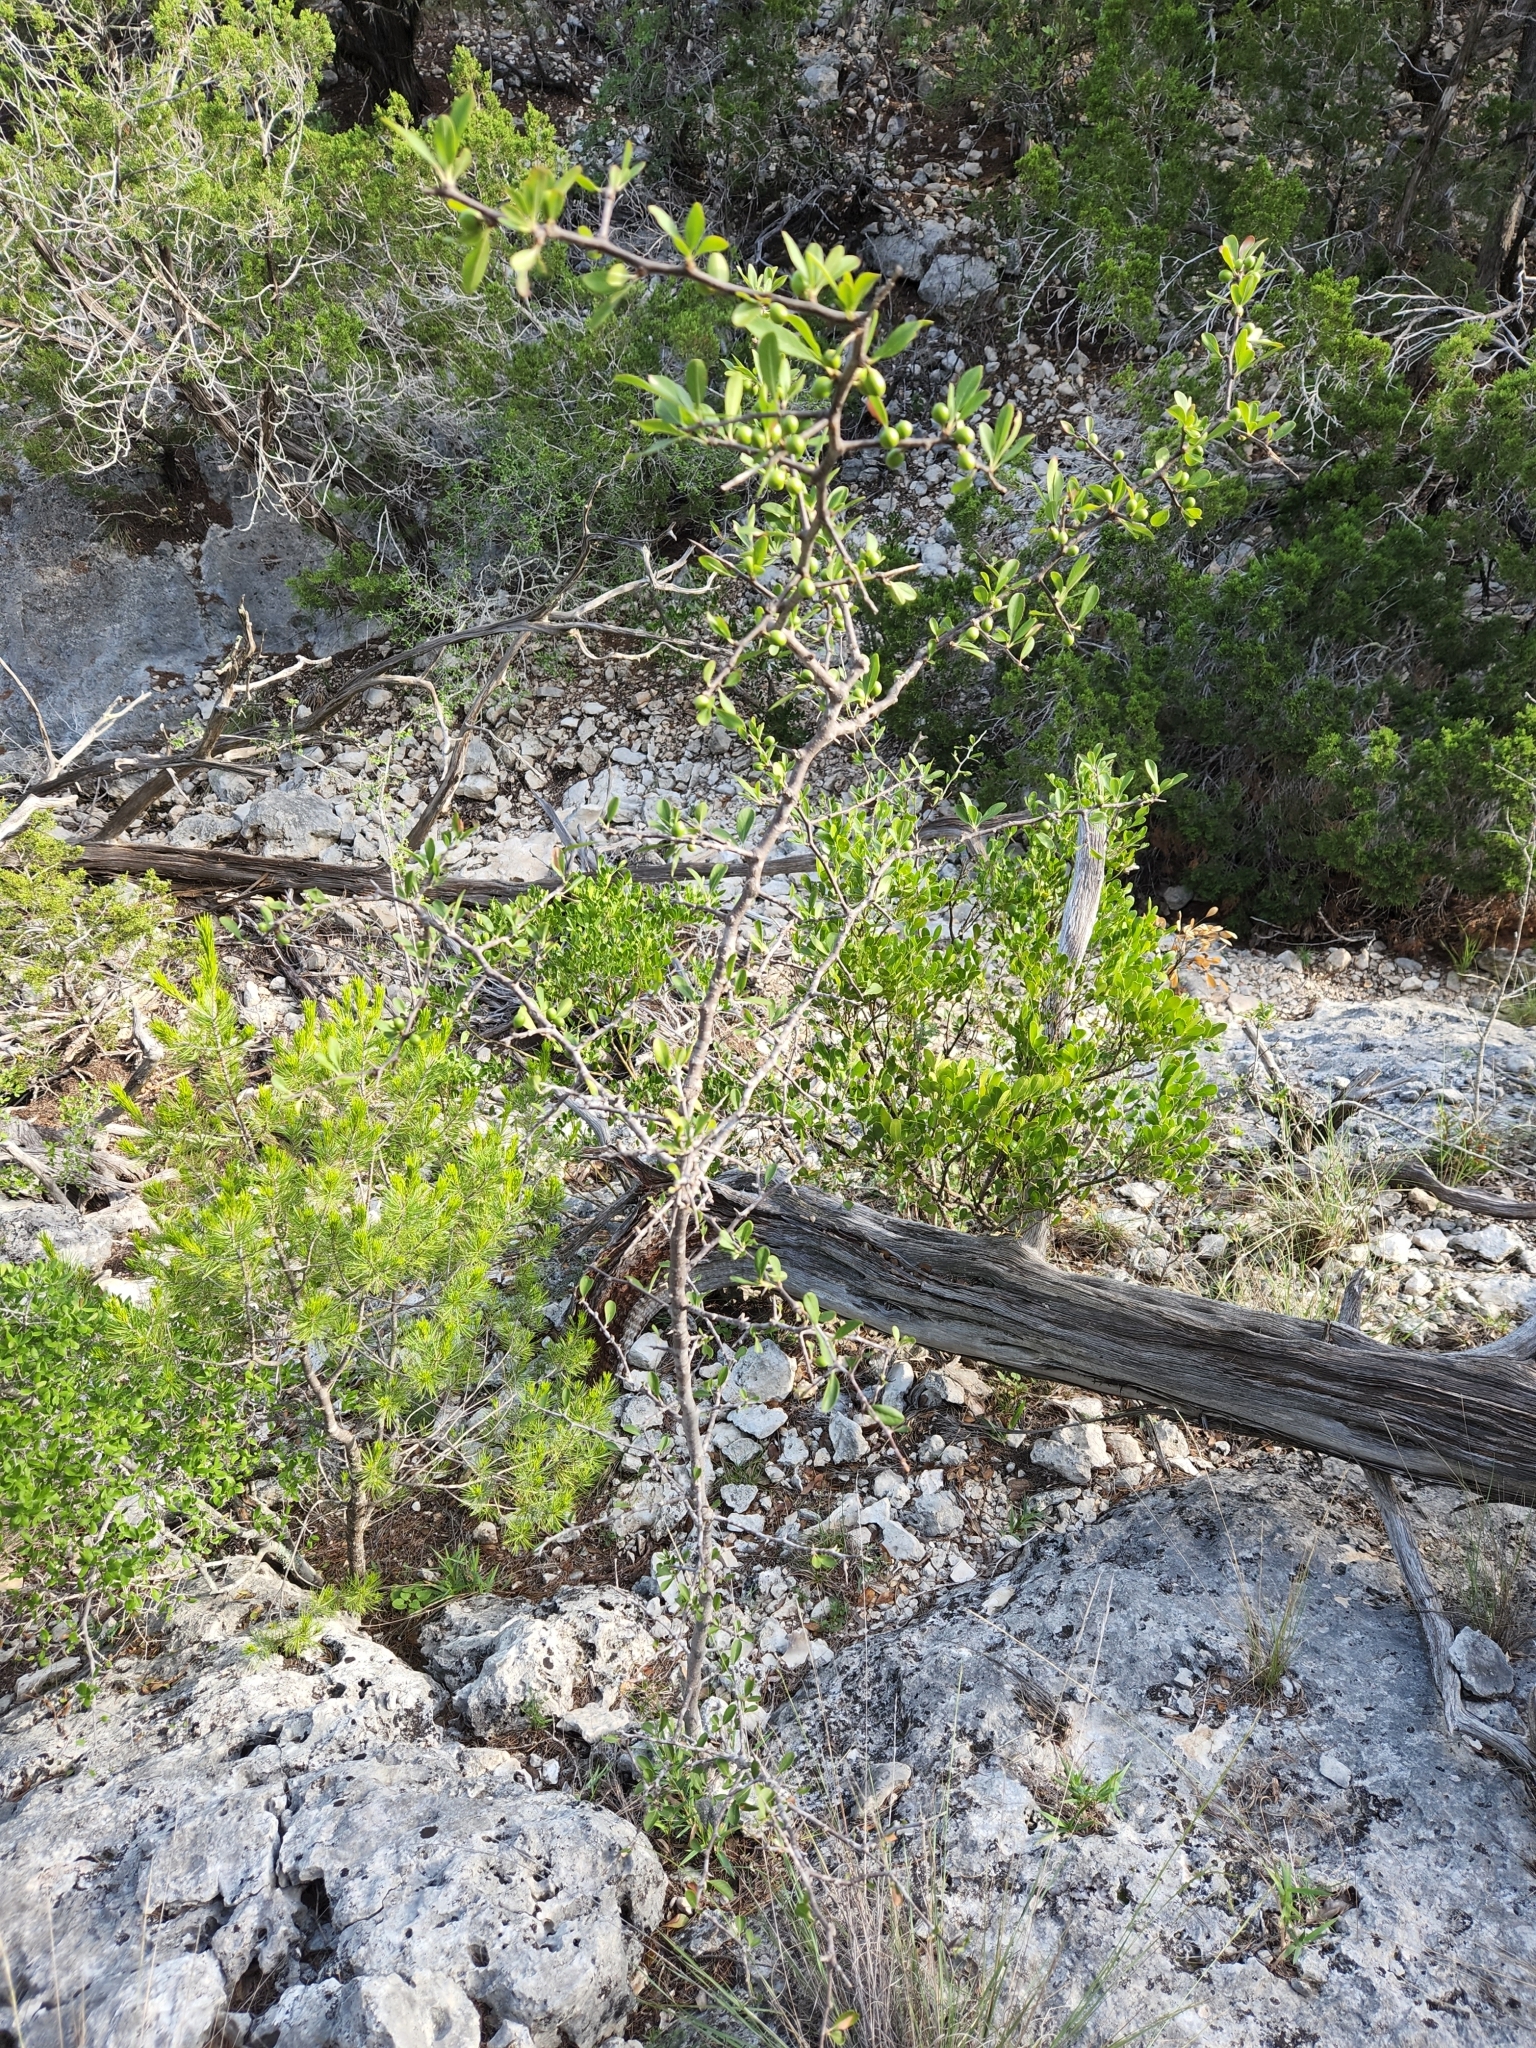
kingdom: Plantae
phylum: Tracheophyta
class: Magnoliopsida
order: Ericales
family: Sapotaceae
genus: Sideroxylon
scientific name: Sideroxylon lanuginosum
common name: Chittamwood
